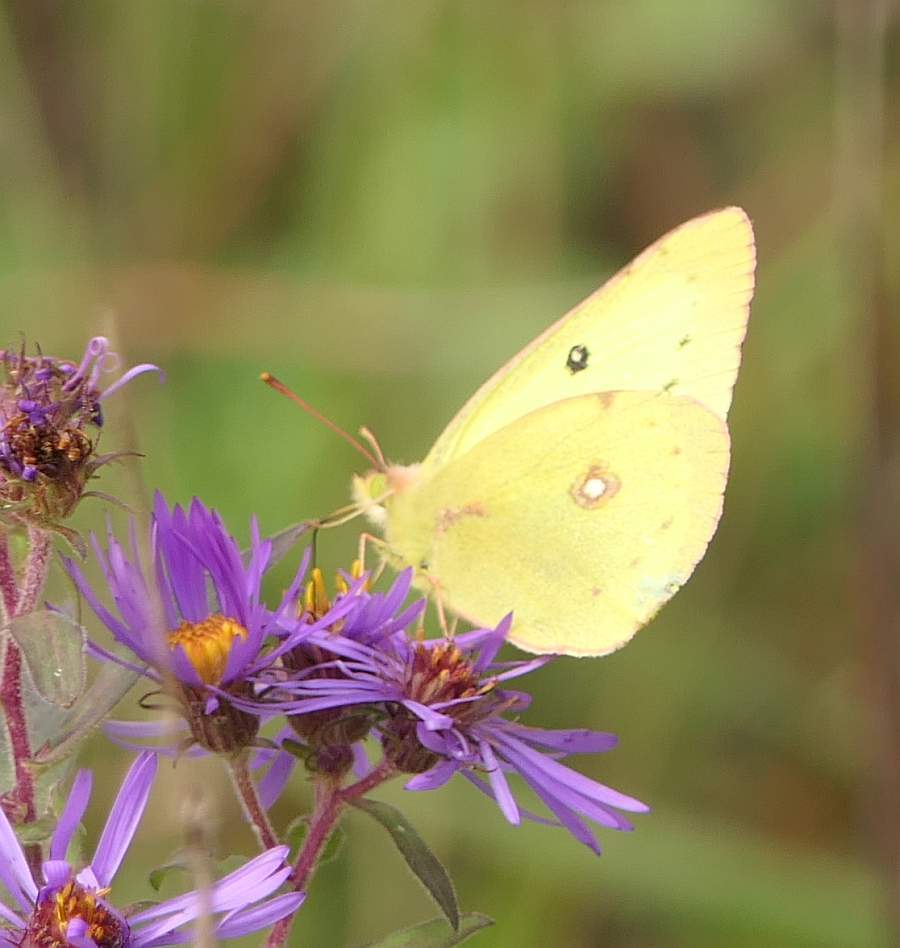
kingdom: Animalia
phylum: Arthropoda
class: Insecta
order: Lepidoptera
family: Pieridae
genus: Colias
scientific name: Colias philodice
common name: Clouded sulphur
